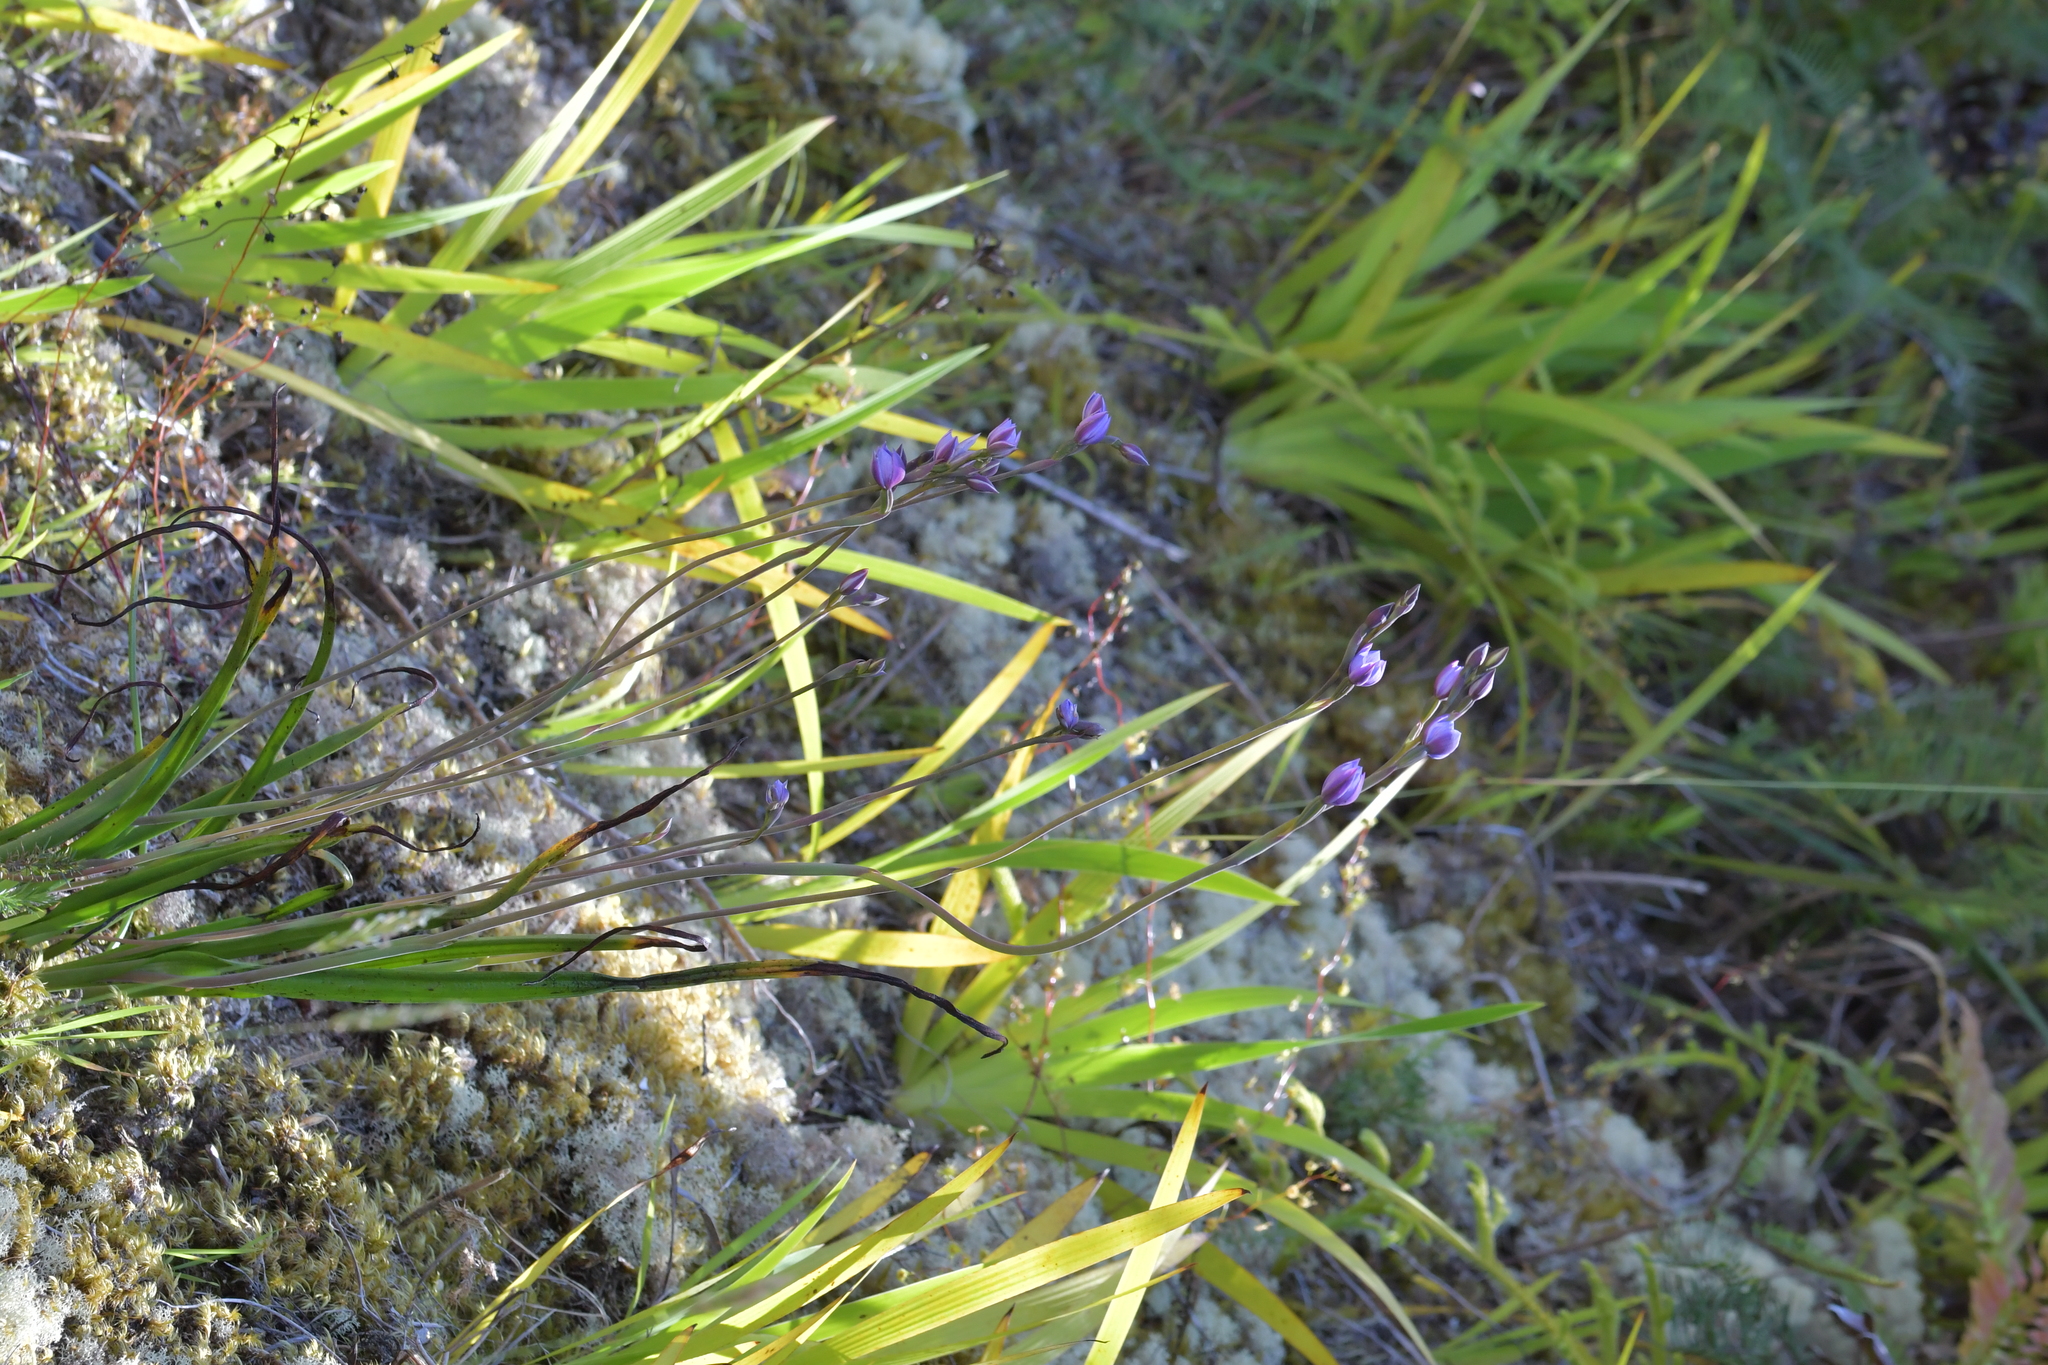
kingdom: Plantae
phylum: Tracheophyta
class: Liliopsida
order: Asparagales
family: Orchidaceae
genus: Thelymitra
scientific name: Thelymitra pulchella
